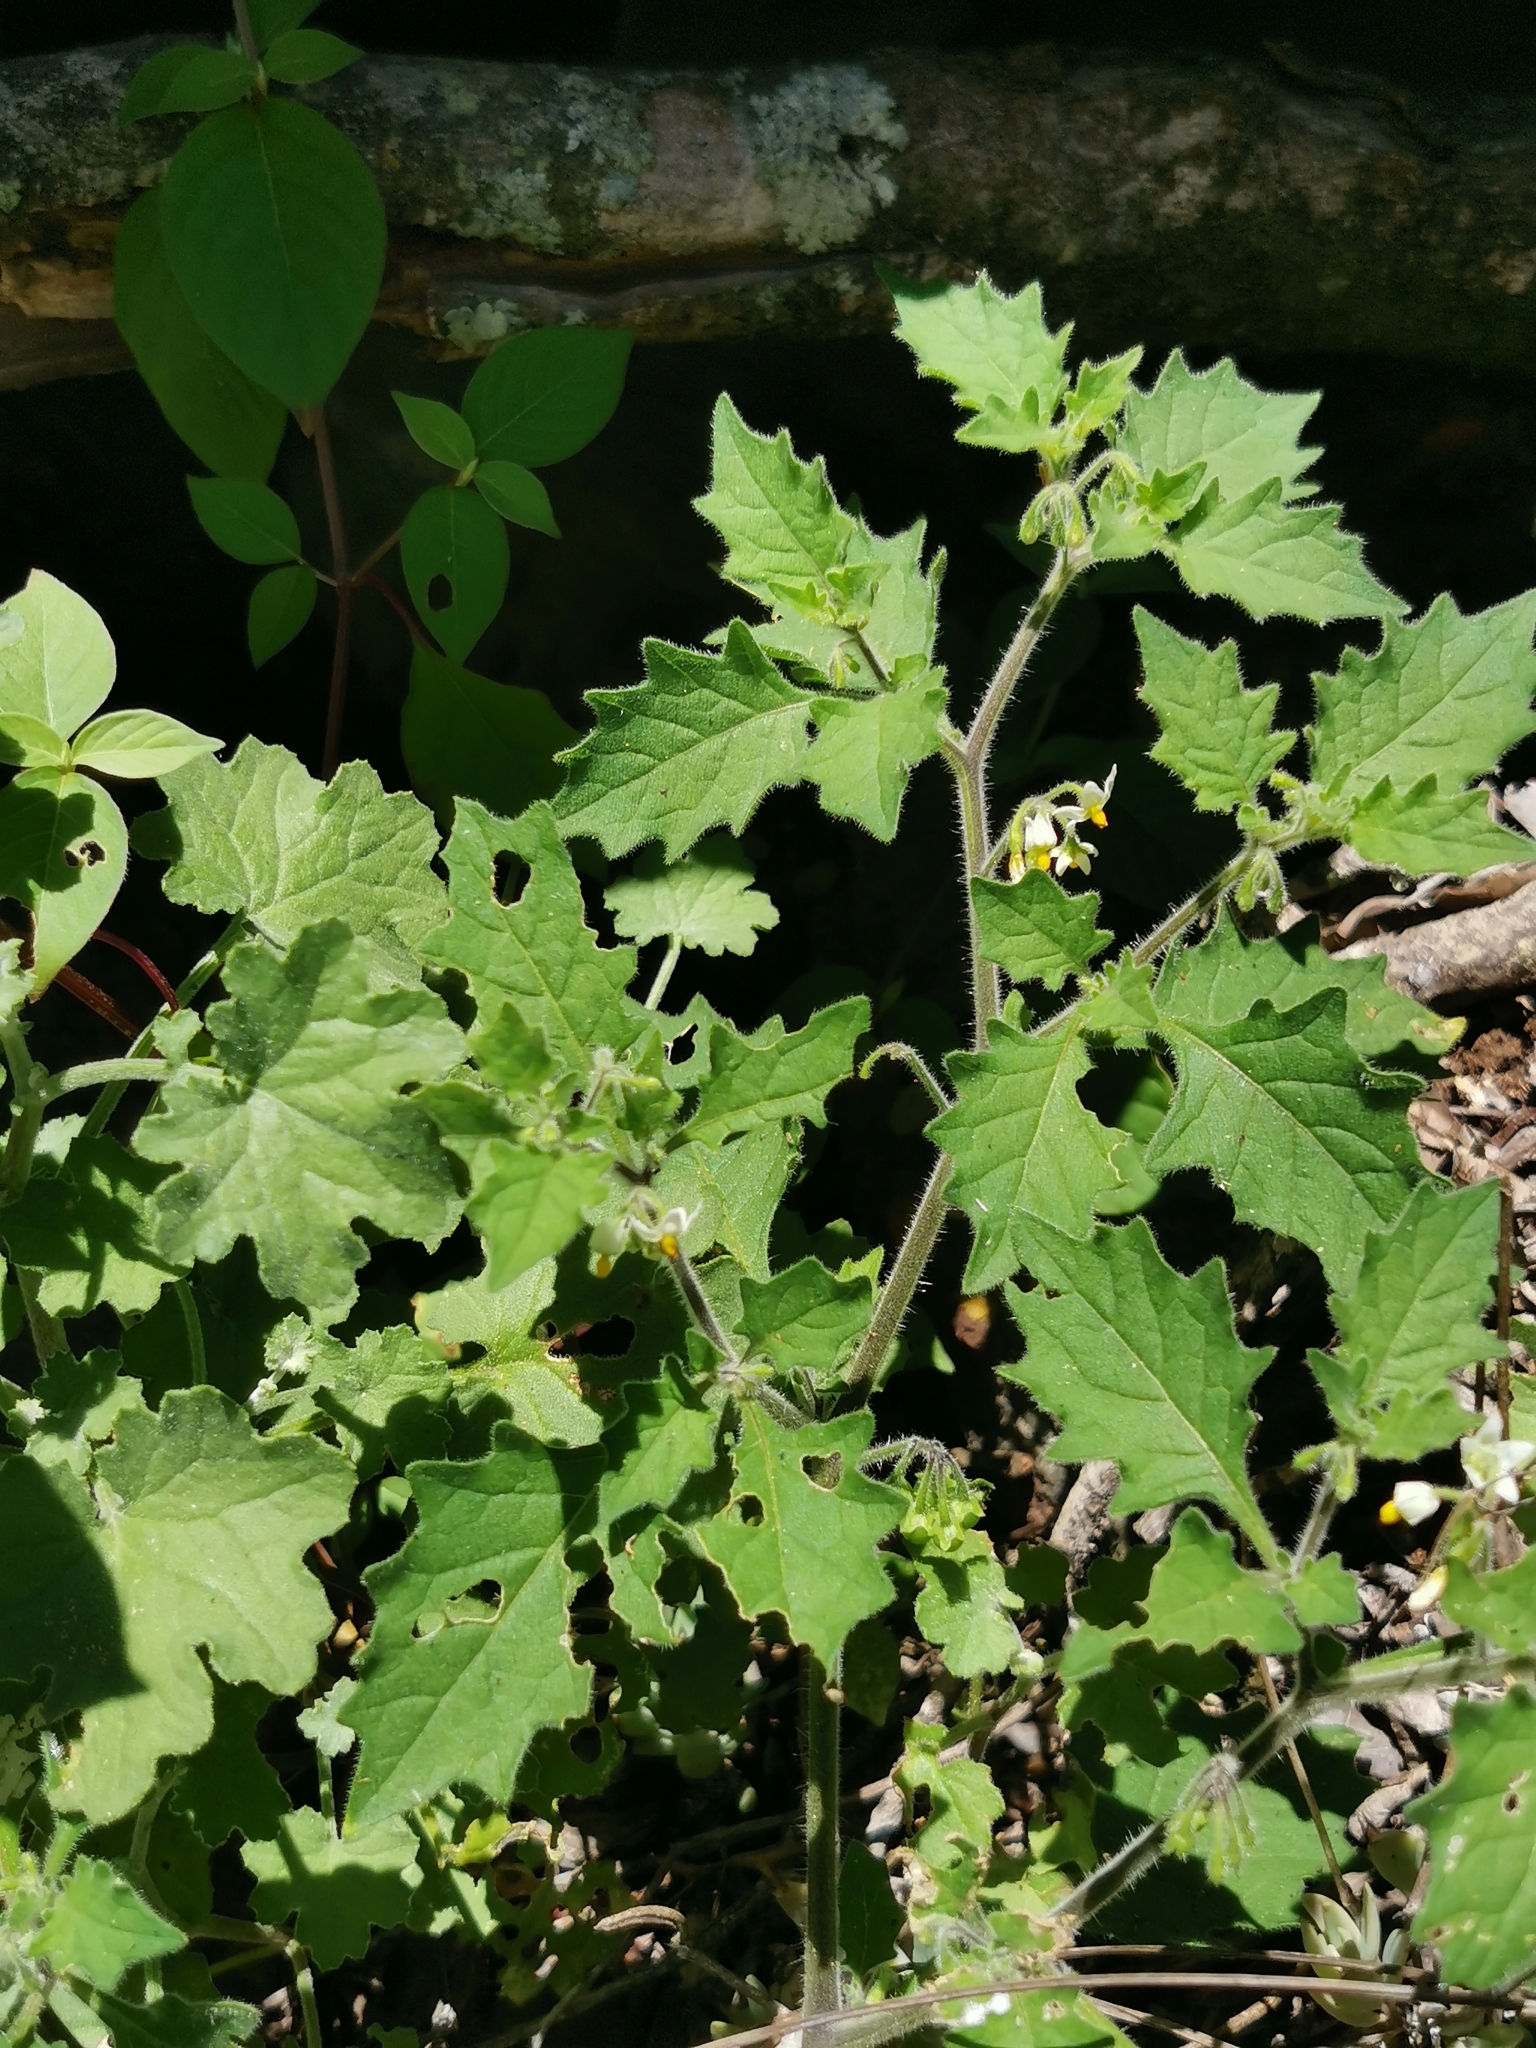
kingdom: Plantae
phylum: Tracheophyta
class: Magnoliopsida
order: Solanales
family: Solanaceae
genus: Solanum
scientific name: Solanum retroflexum
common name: Wonderberry
